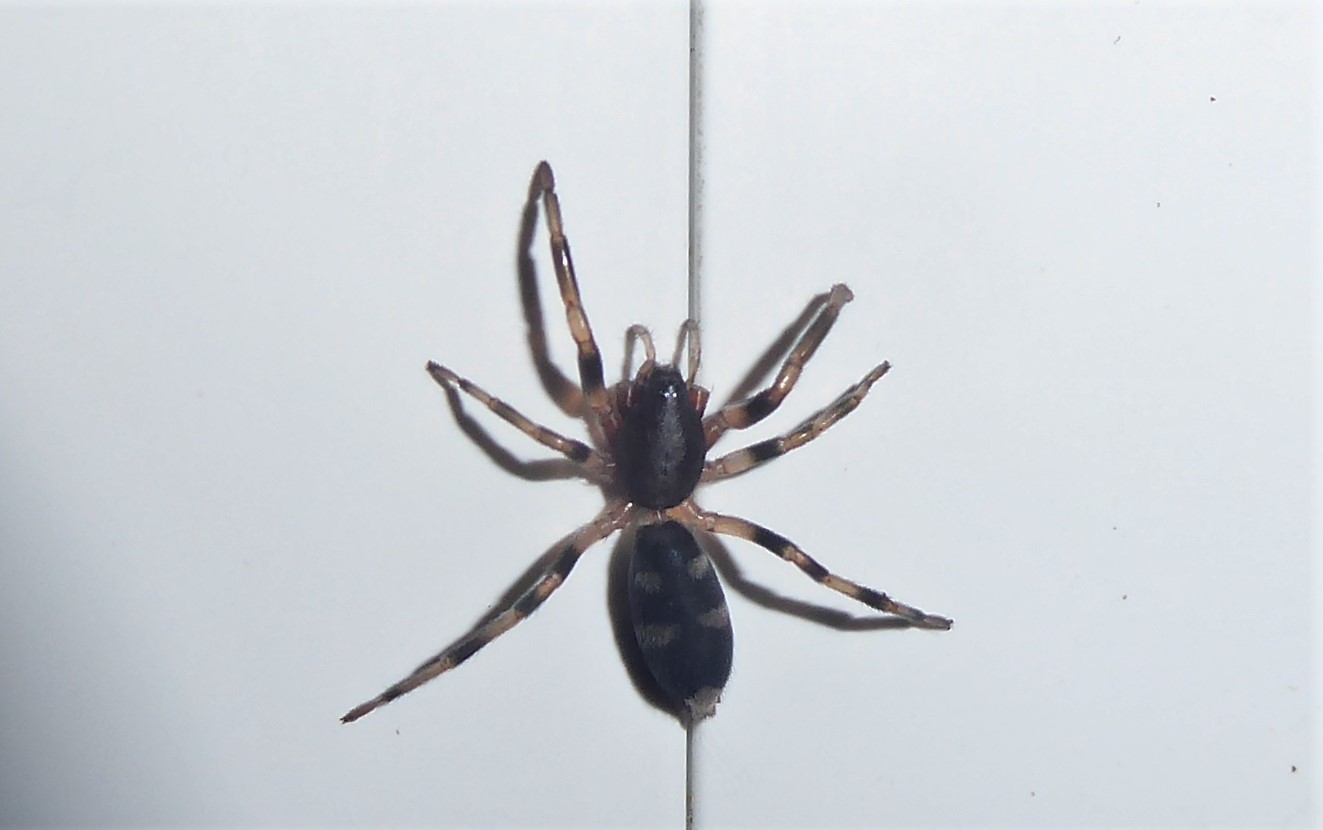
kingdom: Animalia
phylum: Arthropoda
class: Arachnida
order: Araneae
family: Lamponidae
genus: Lampona
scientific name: Lampona cylindrata
